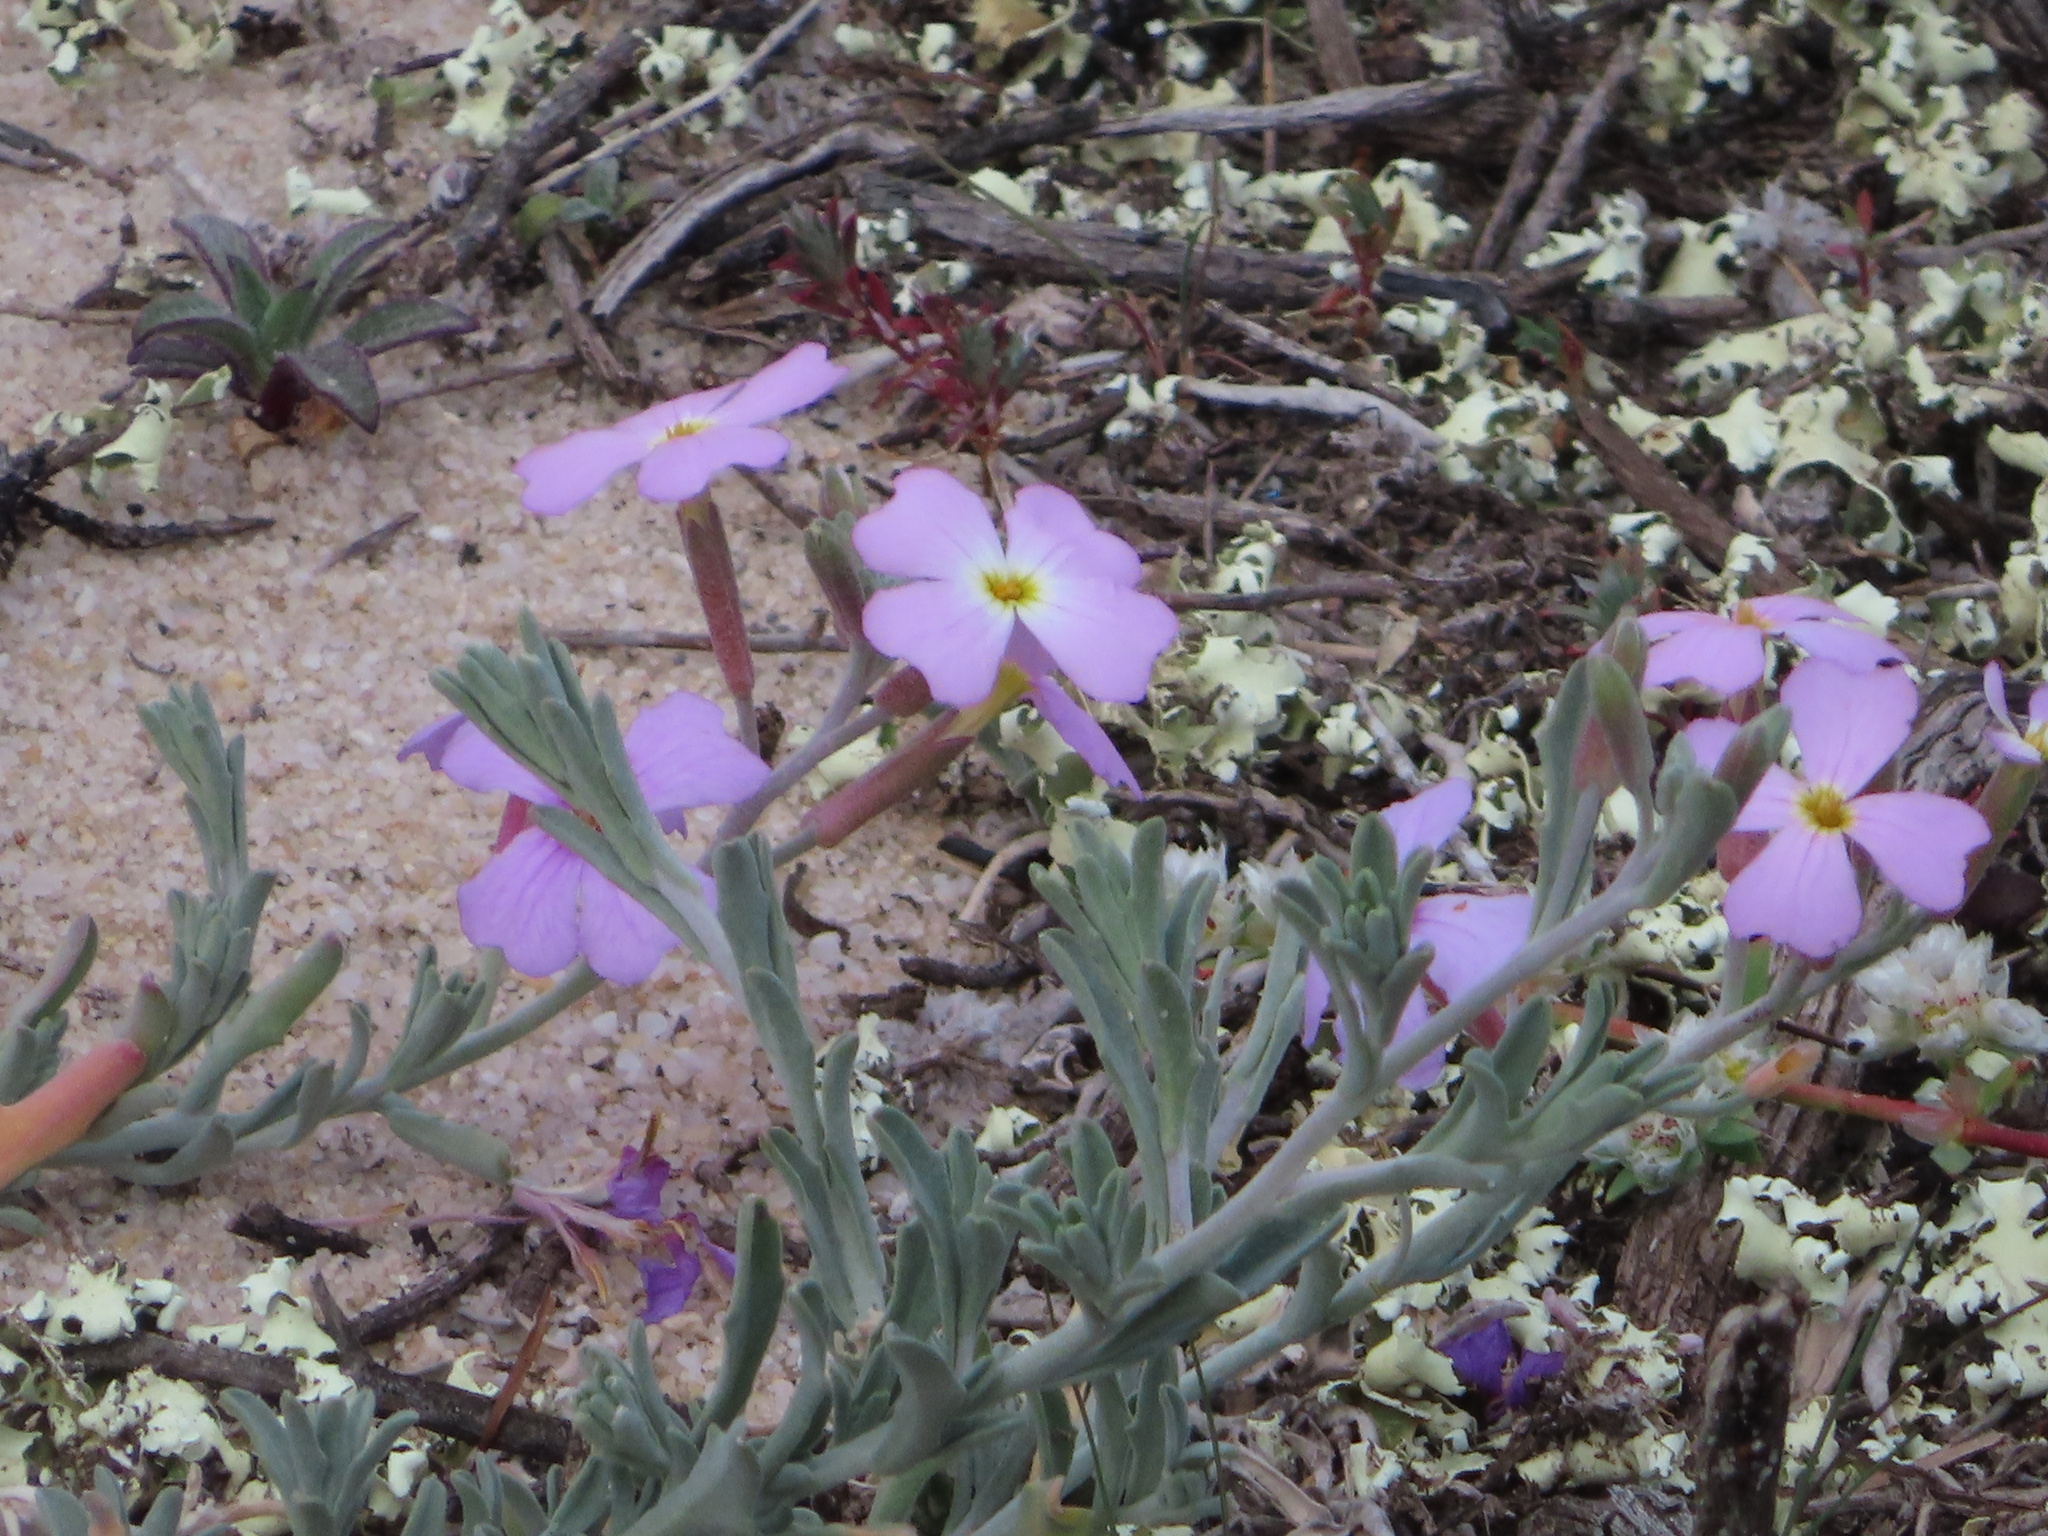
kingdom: Plantae
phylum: Tracheophyta
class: Magnoliopsida
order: Brassicales
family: Brassicaceae
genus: Marcuskochia
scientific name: Marcuskochia littorea
